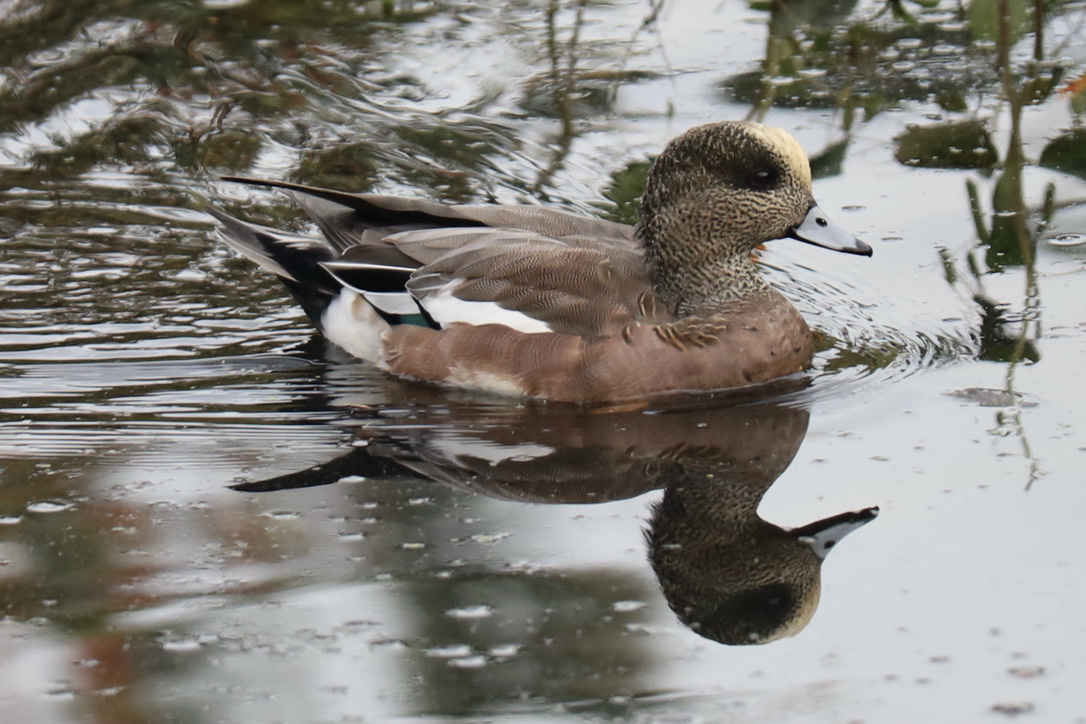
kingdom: Animalia
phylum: Chordata
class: Aves
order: Anseriformes
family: Anatidae
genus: Mareca
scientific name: Mareca americana
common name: American wigeon
